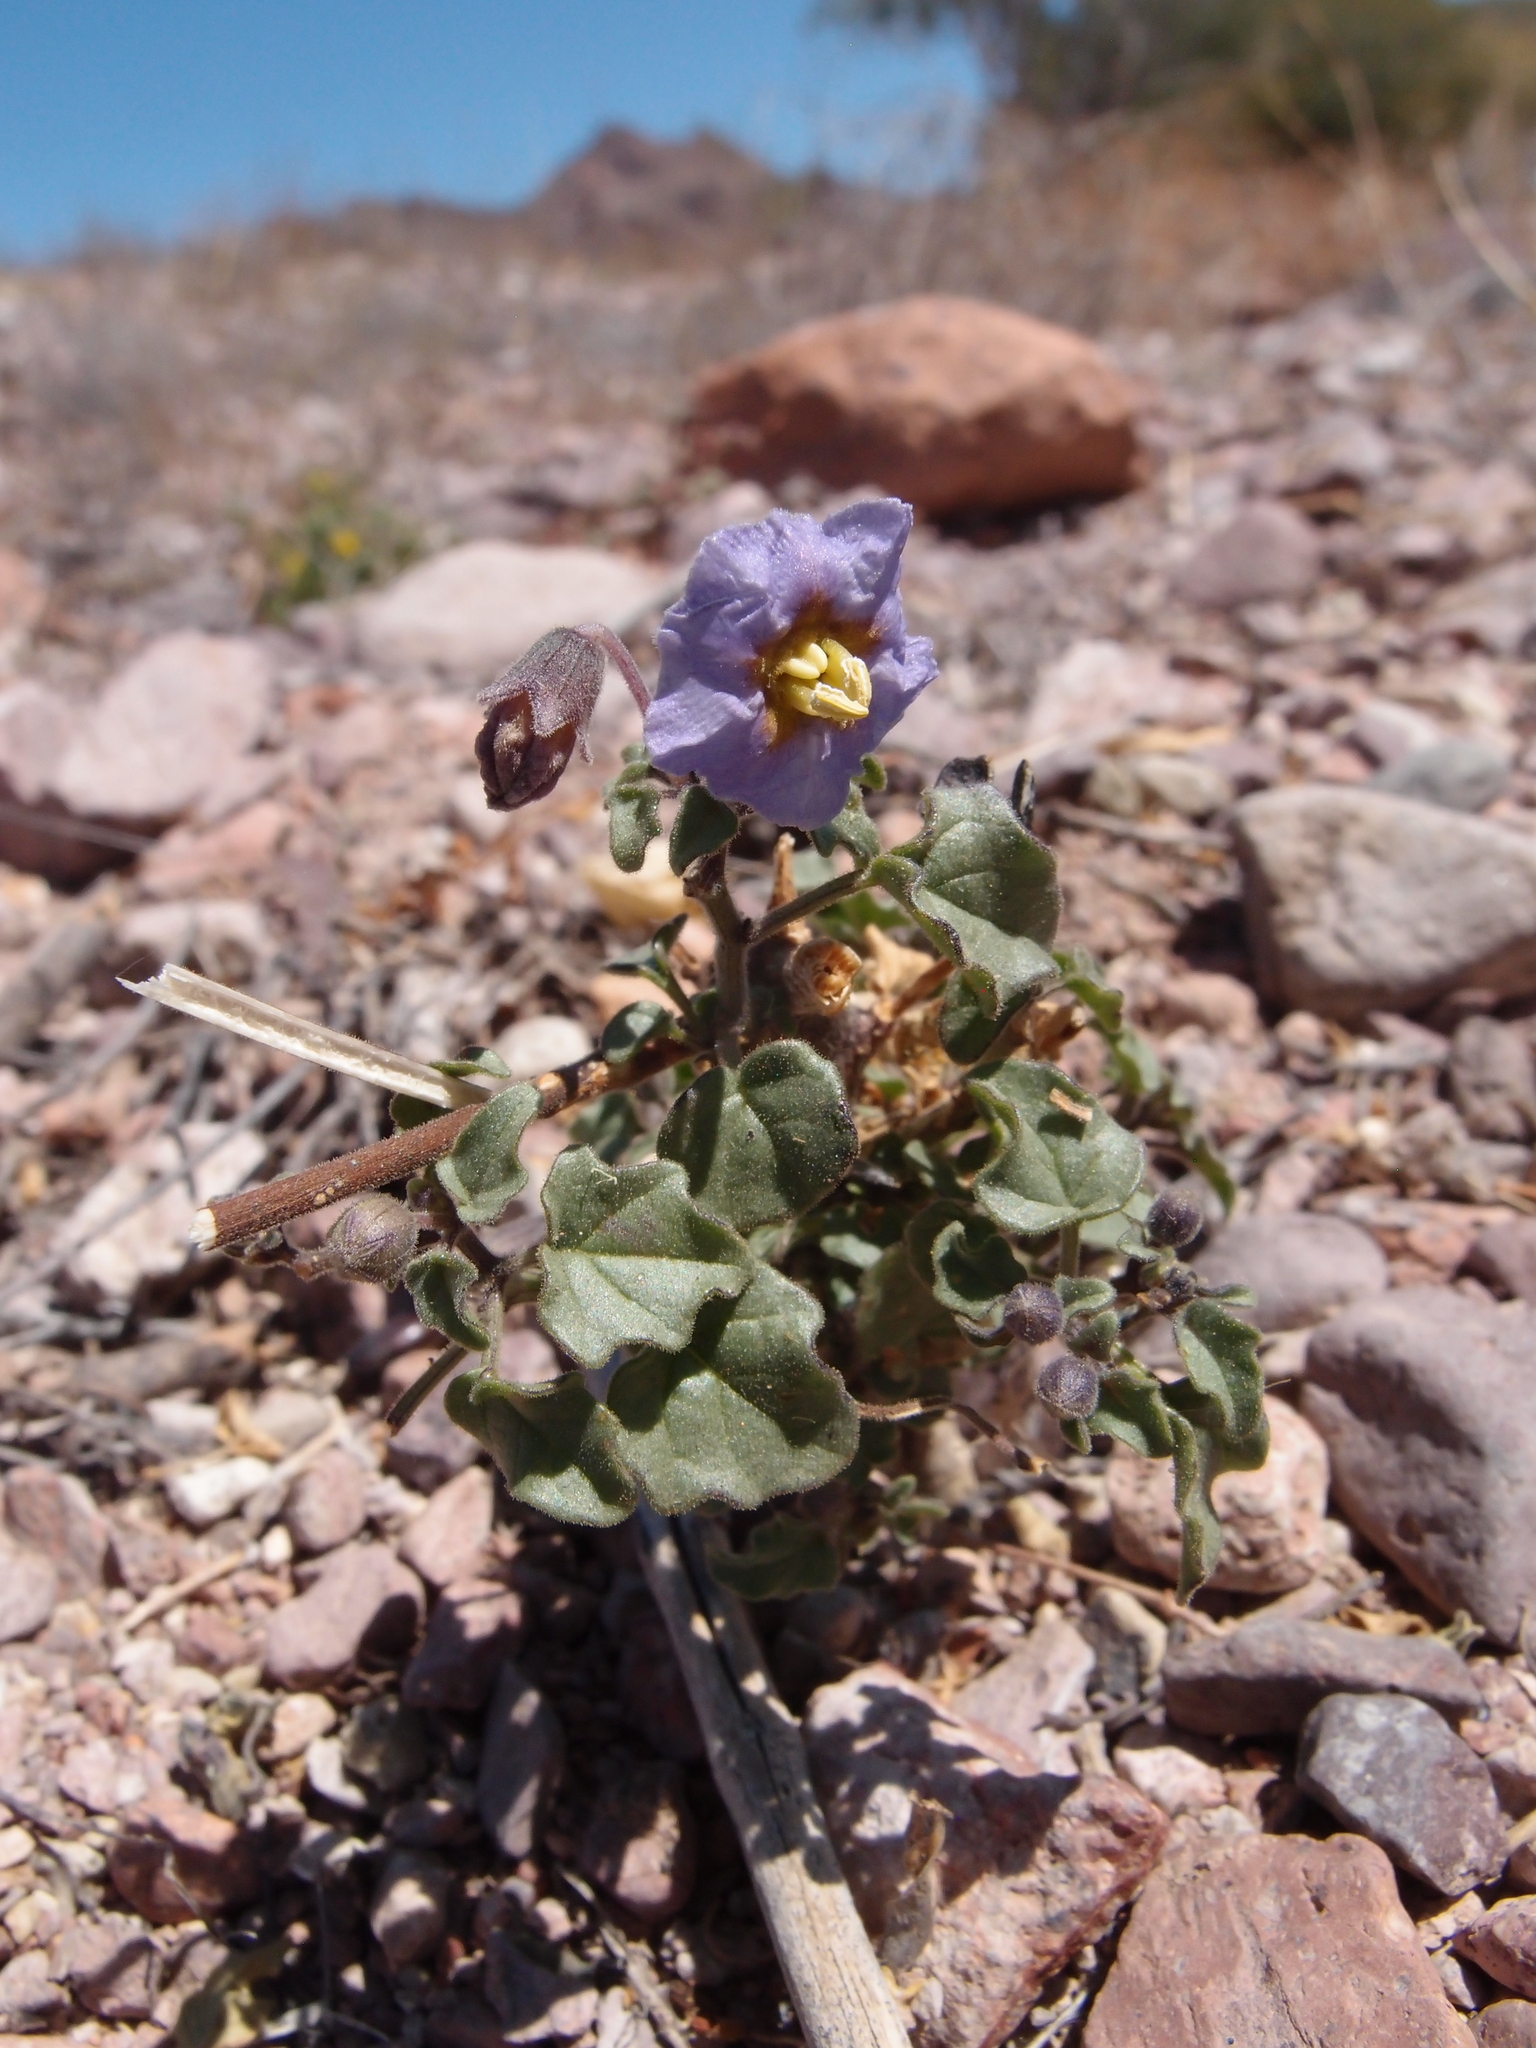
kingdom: Plantae
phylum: Tracheophyta
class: Magnoliopsida
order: Solanales
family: Solanaceae
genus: Physalis
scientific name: Physalis purpurea
